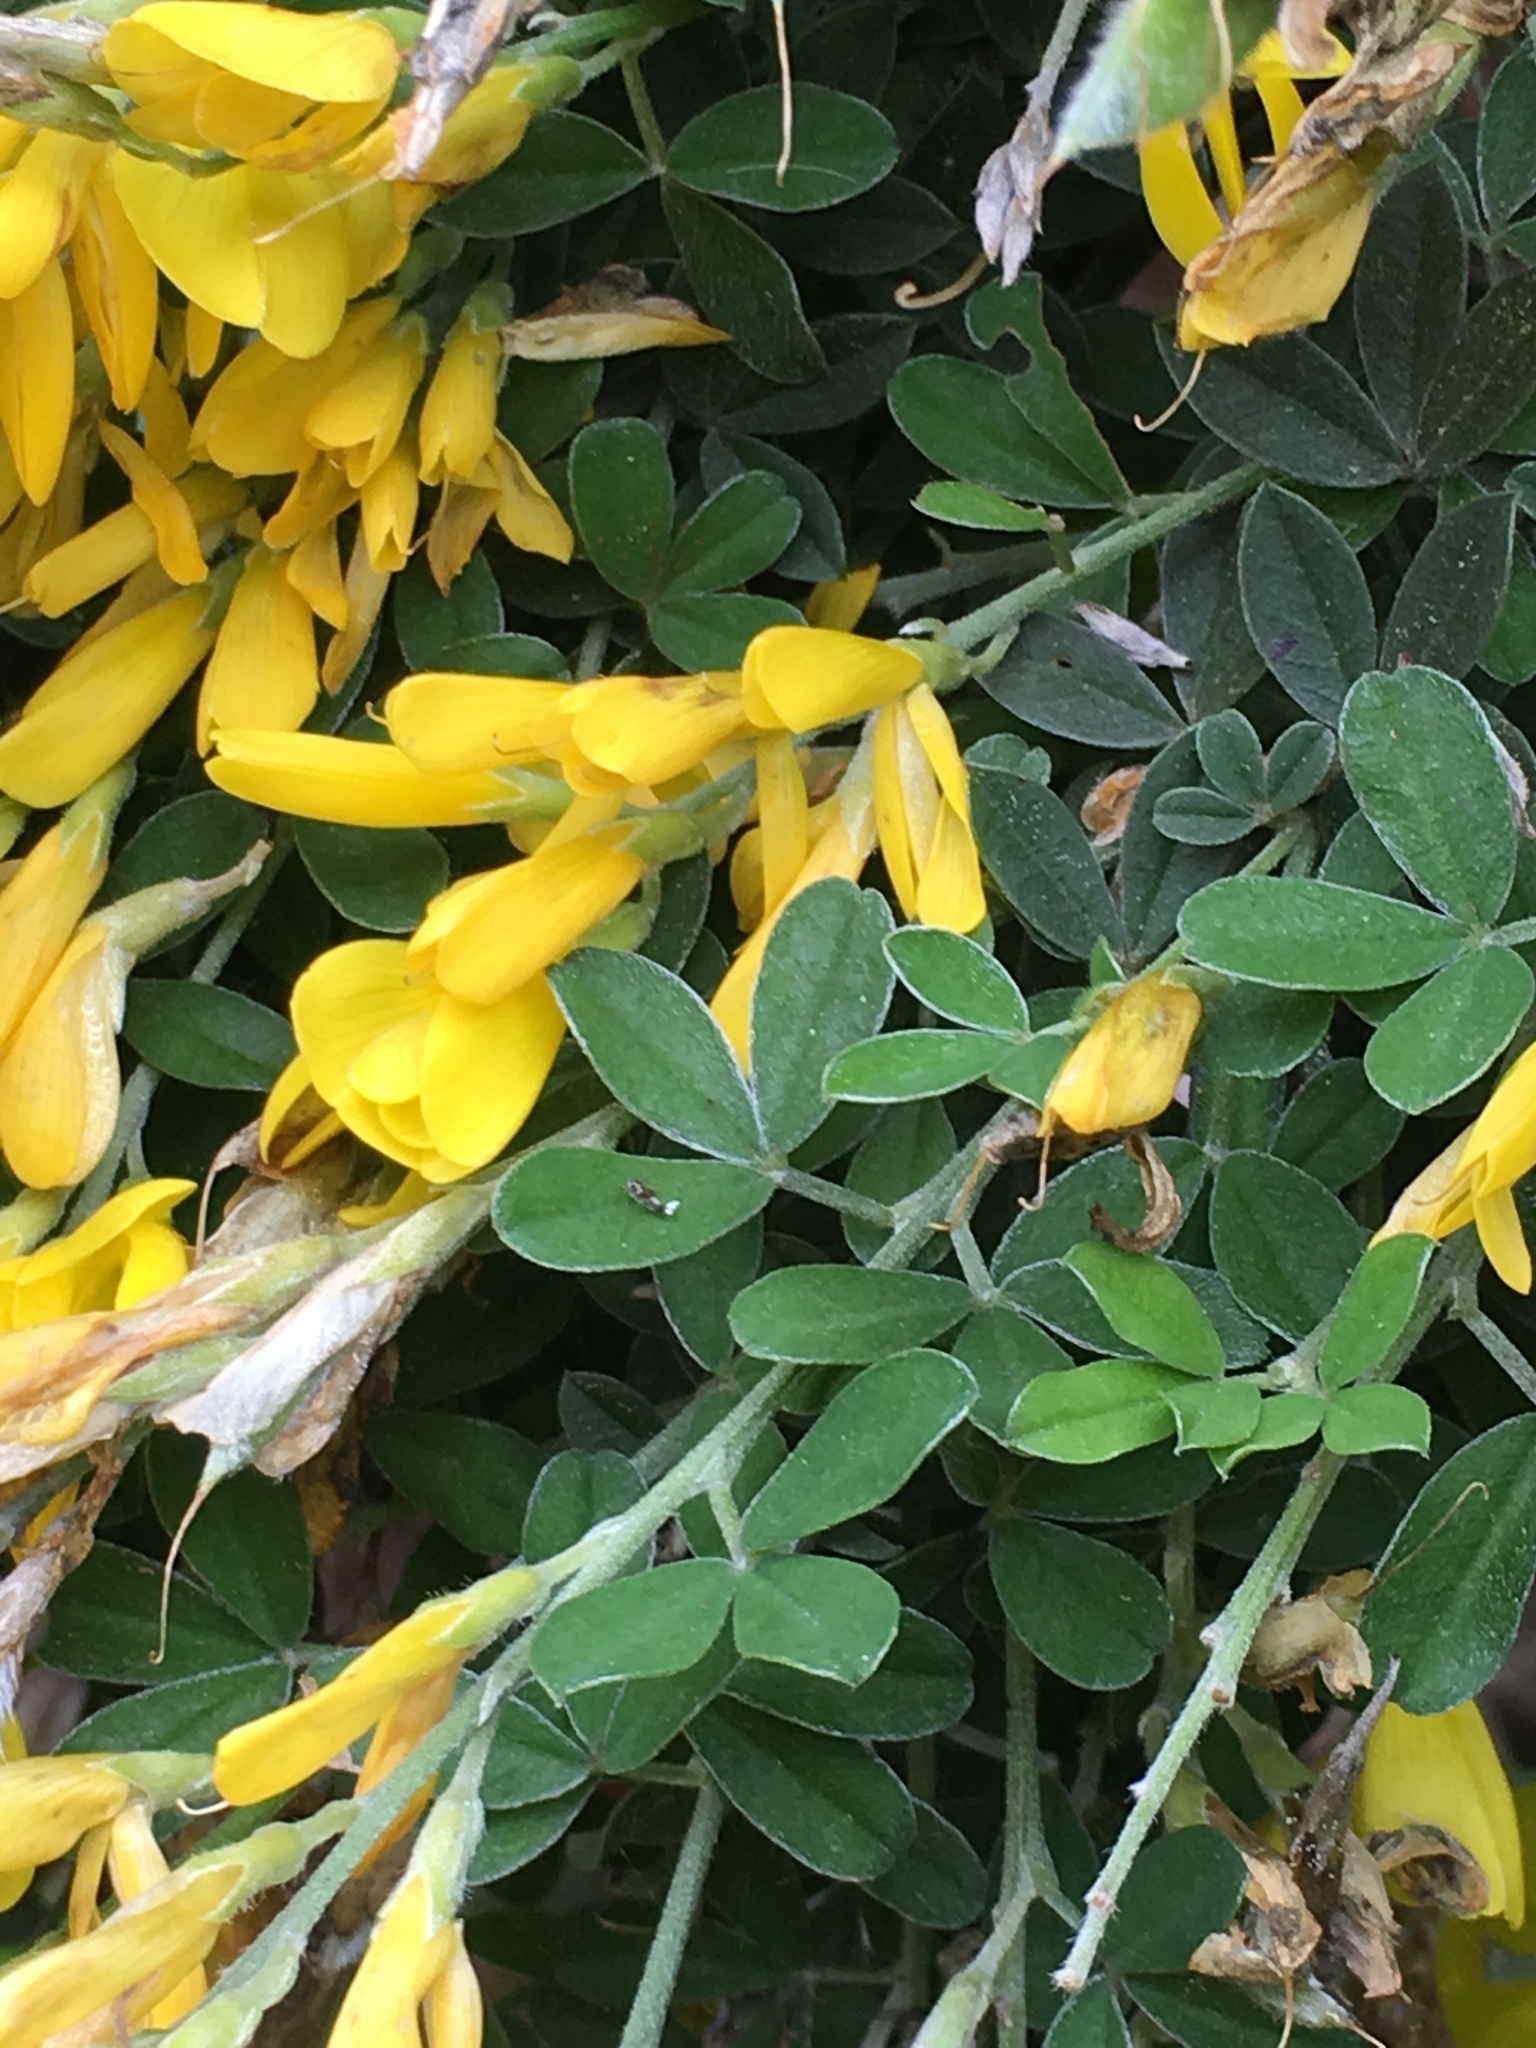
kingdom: Plantae
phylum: Tracheophyta
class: Magnoliopsida
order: Fabales
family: Fabaceae
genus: Genista
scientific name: Genista monspessulana
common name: Montpellier broom
